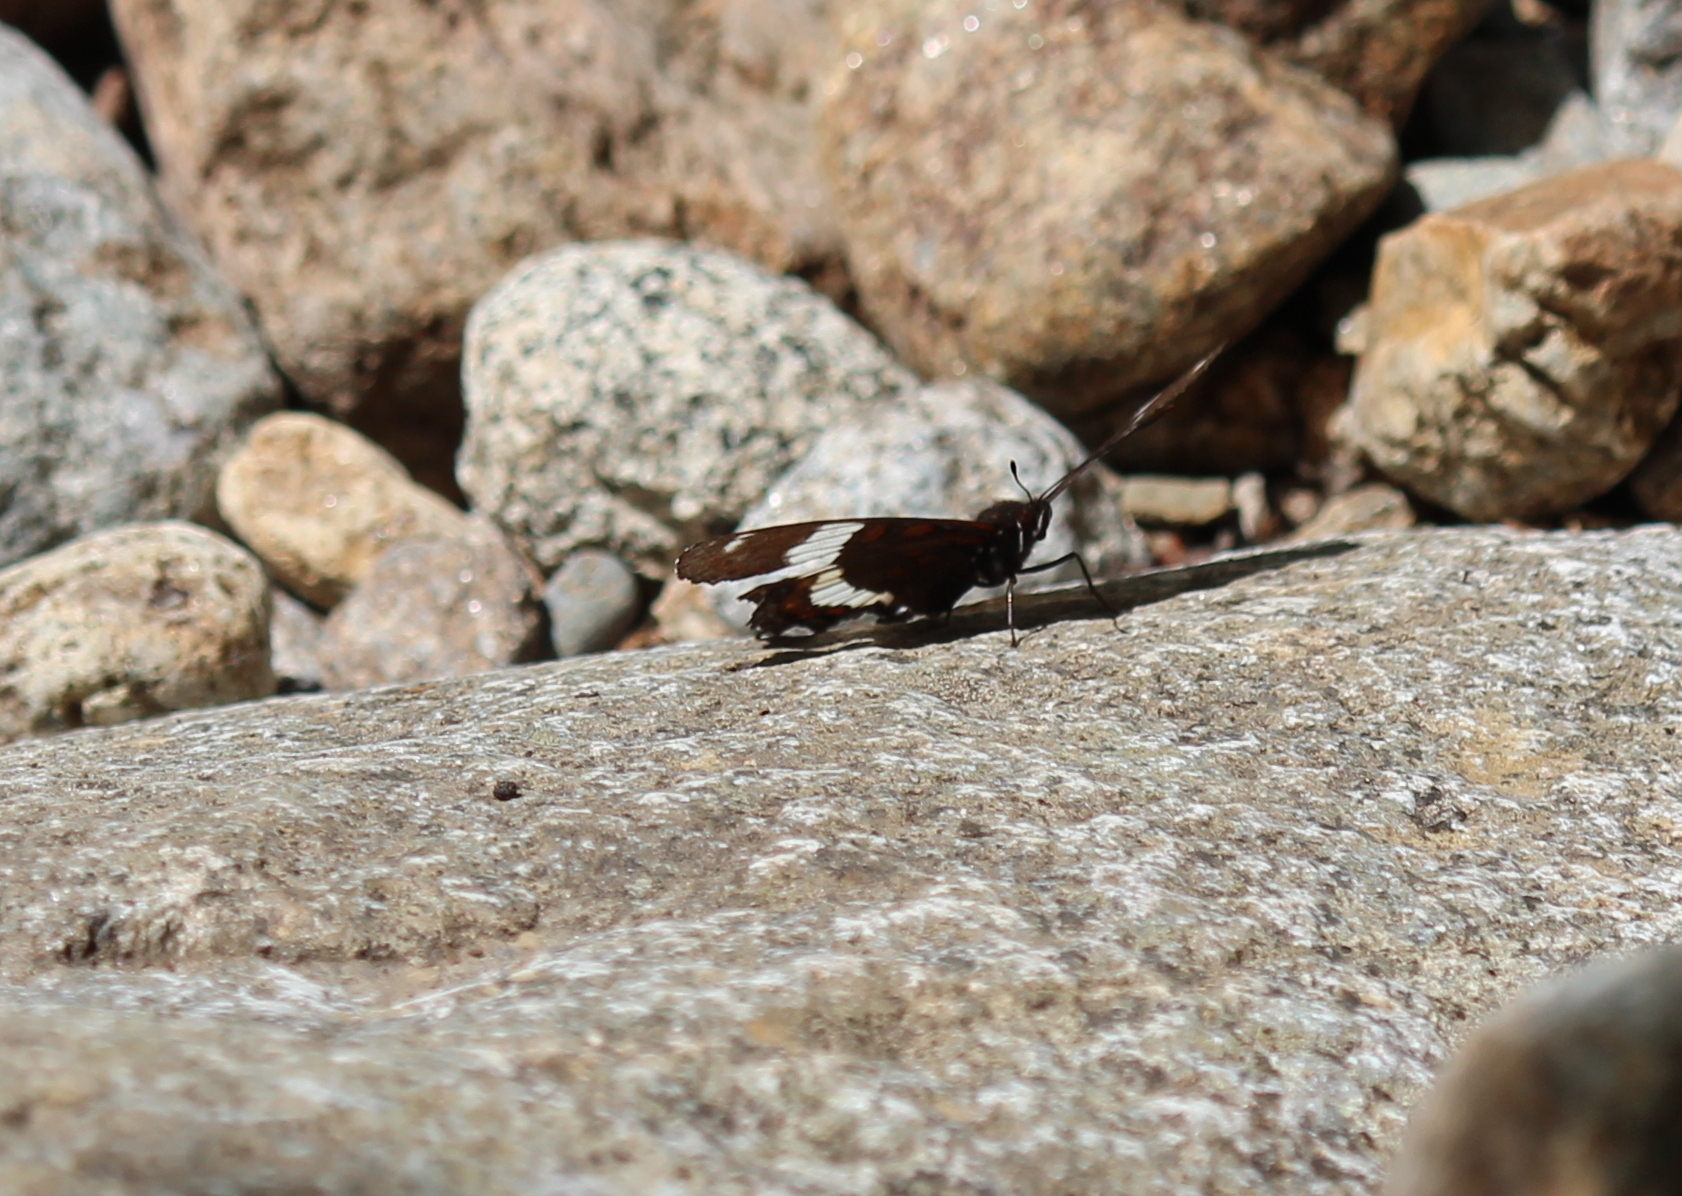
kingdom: Animalia
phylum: Arthropoda
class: Insecta
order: Lepidoptera
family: Nymphalidae
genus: Limenitis
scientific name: Limenitis arthemis
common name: Red-spotted admiral
